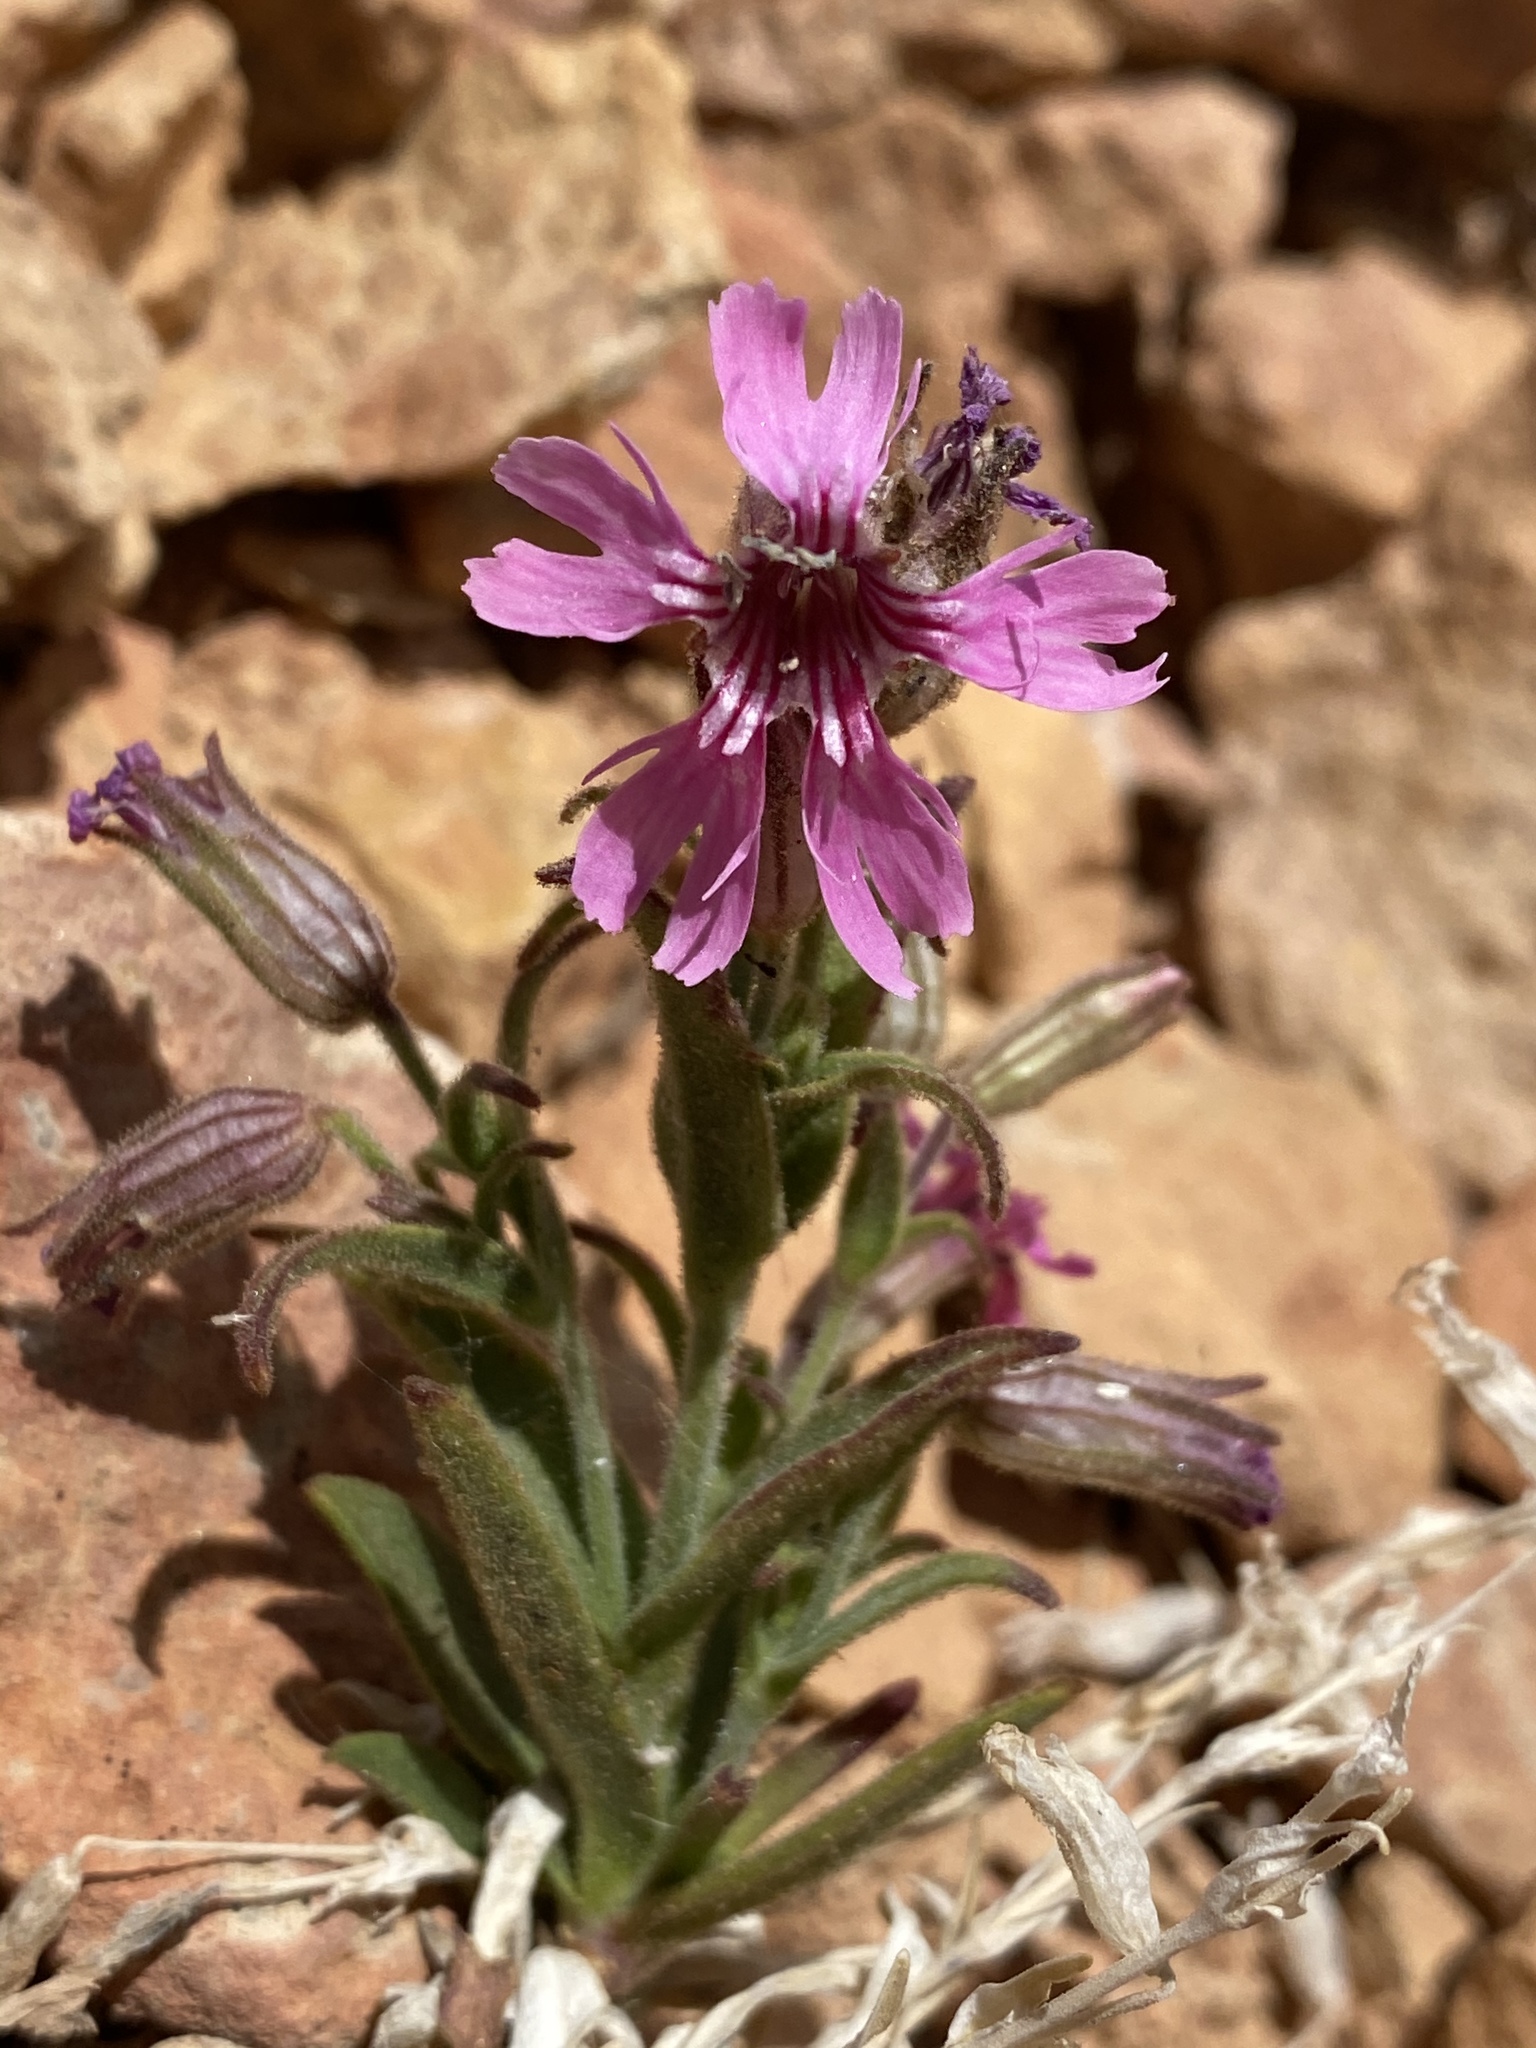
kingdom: Plantae
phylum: Tracheophyta
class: Magnoliopsida
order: Caryophyllales
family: Caryophyllaceae
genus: Silene
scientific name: Silene petersonii
